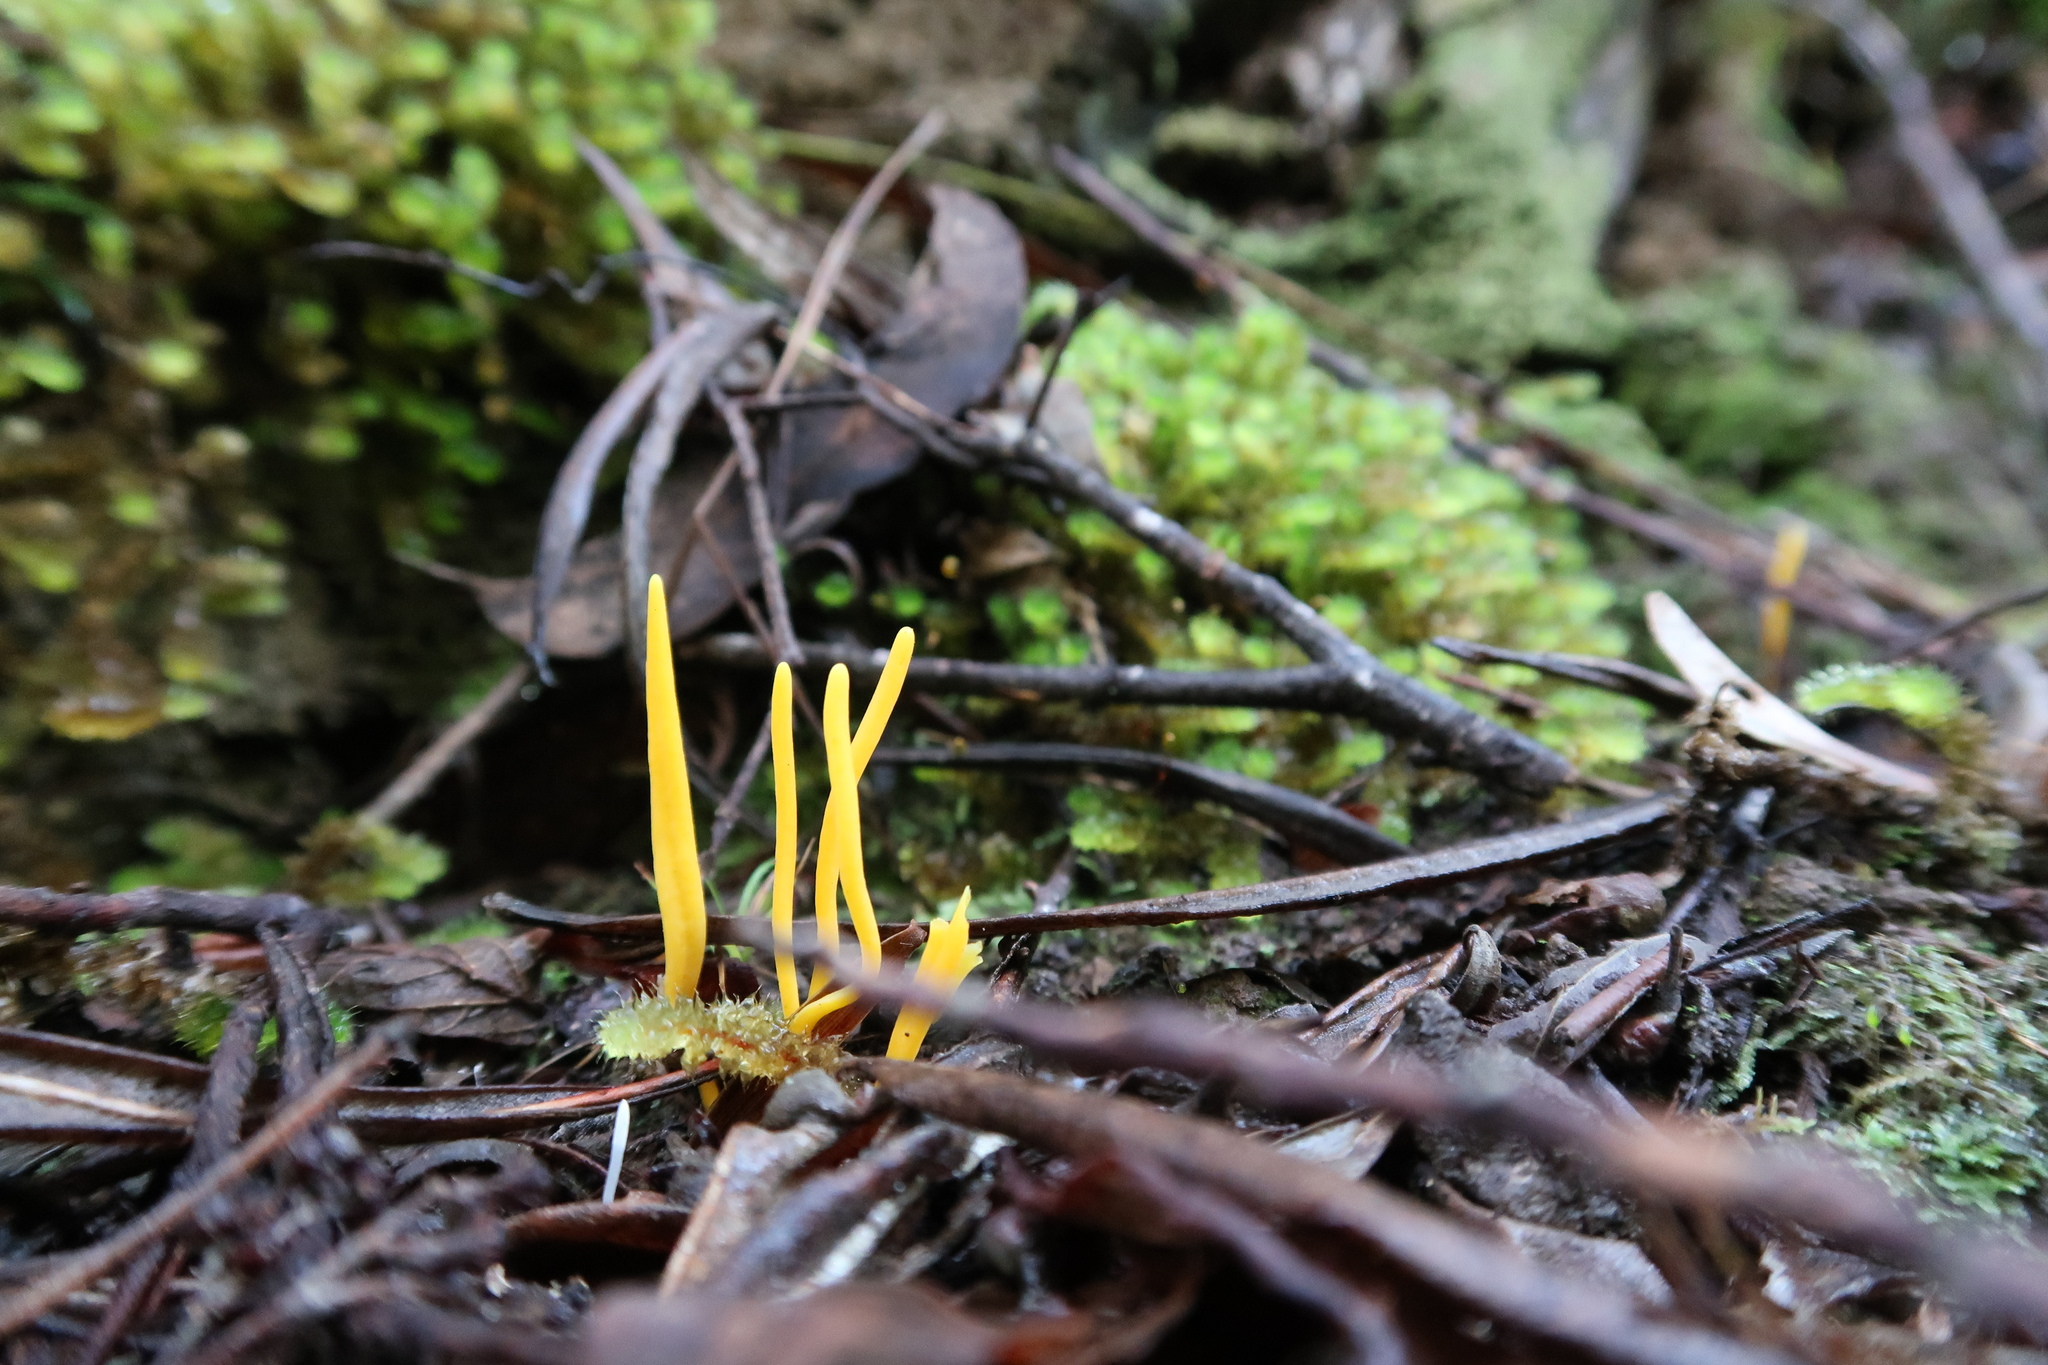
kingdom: Fungi
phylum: Basidiomycota
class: Agaricomycetes
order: Agaricales
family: Clavariaceae
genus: Clavulinopsis
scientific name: Clavulinopsis amoena
